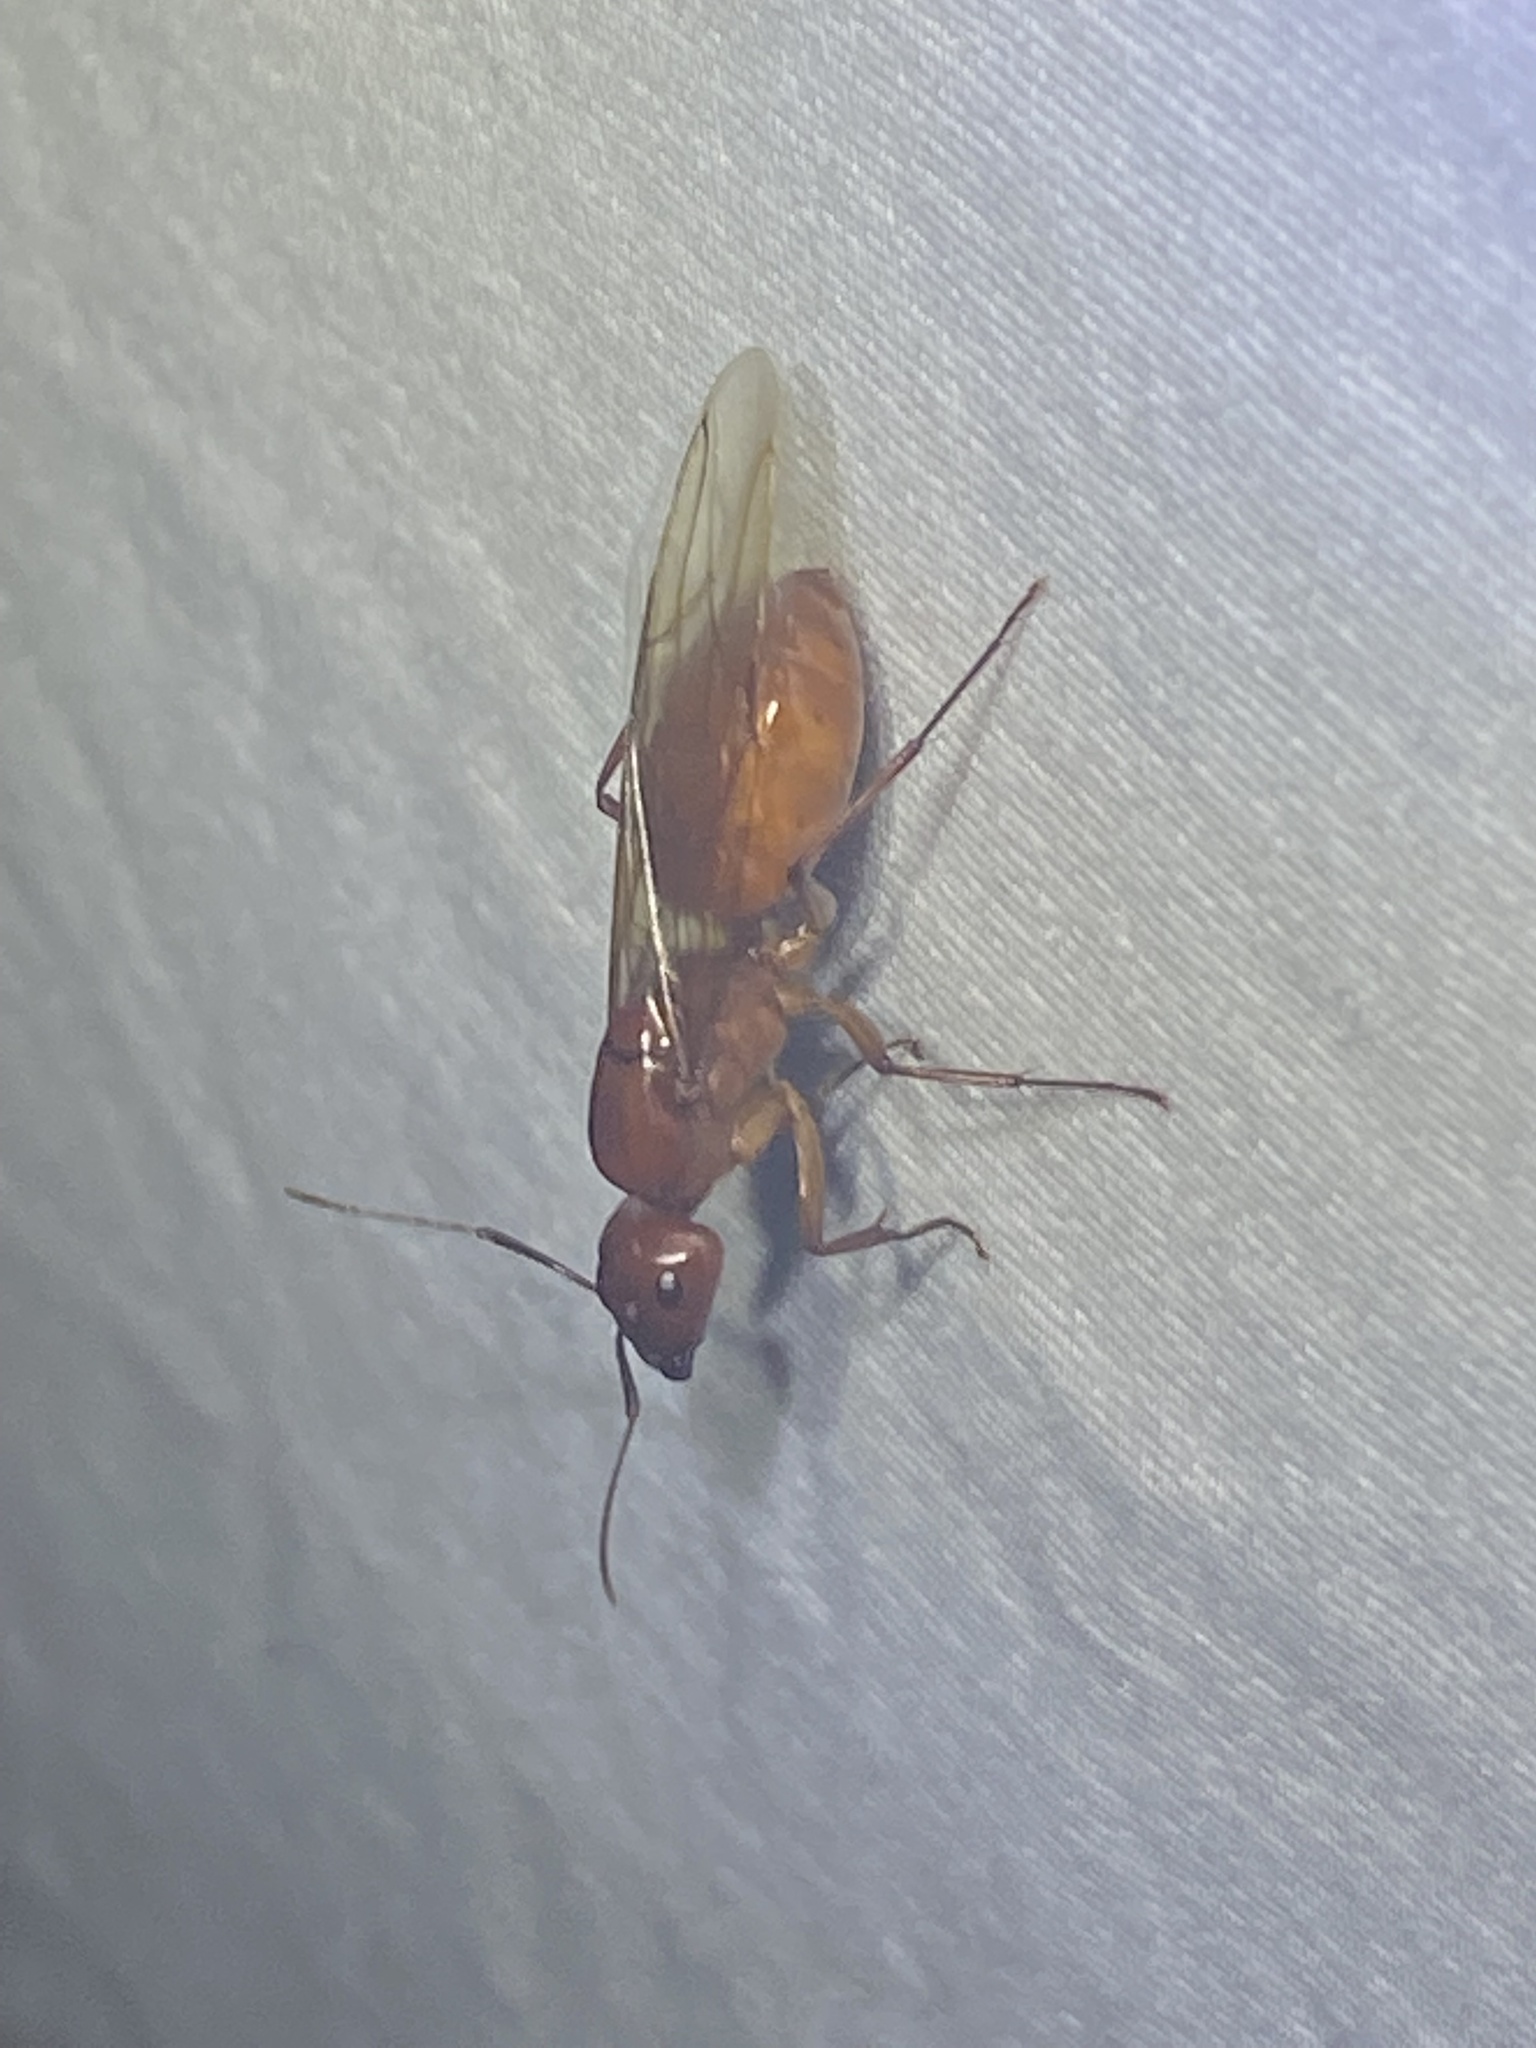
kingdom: Animalia
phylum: Arthropoda
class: Insecta
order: Hymenoptera
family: Formicidae
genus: Camponotus
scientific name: Camponotus castaneus
